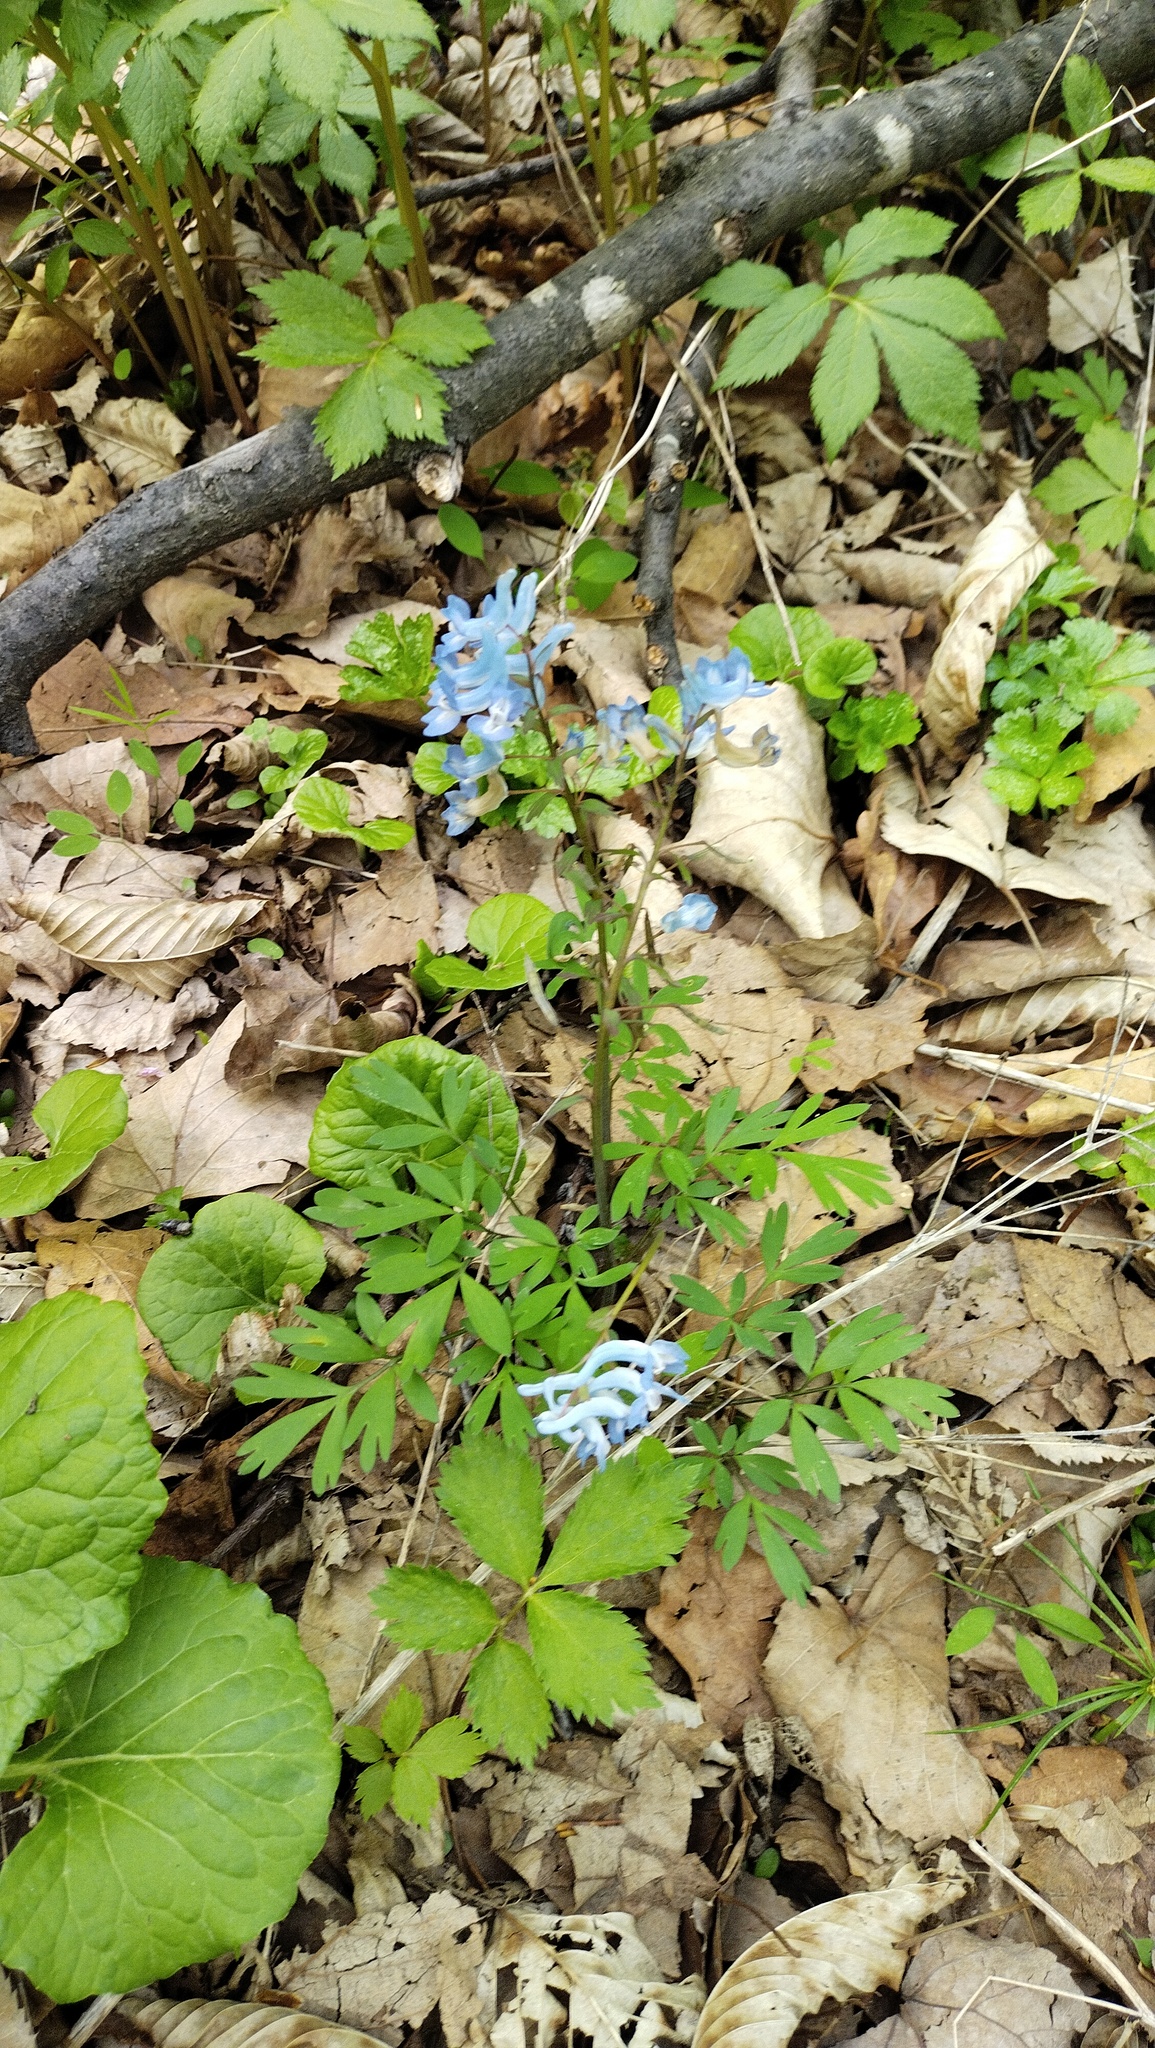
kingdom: Plantae
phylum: Tracheophyta
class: Magnoliopsida
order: Ranunculales
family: Papaveraceae
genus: Corydalis
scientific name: Corydalis ambigua
